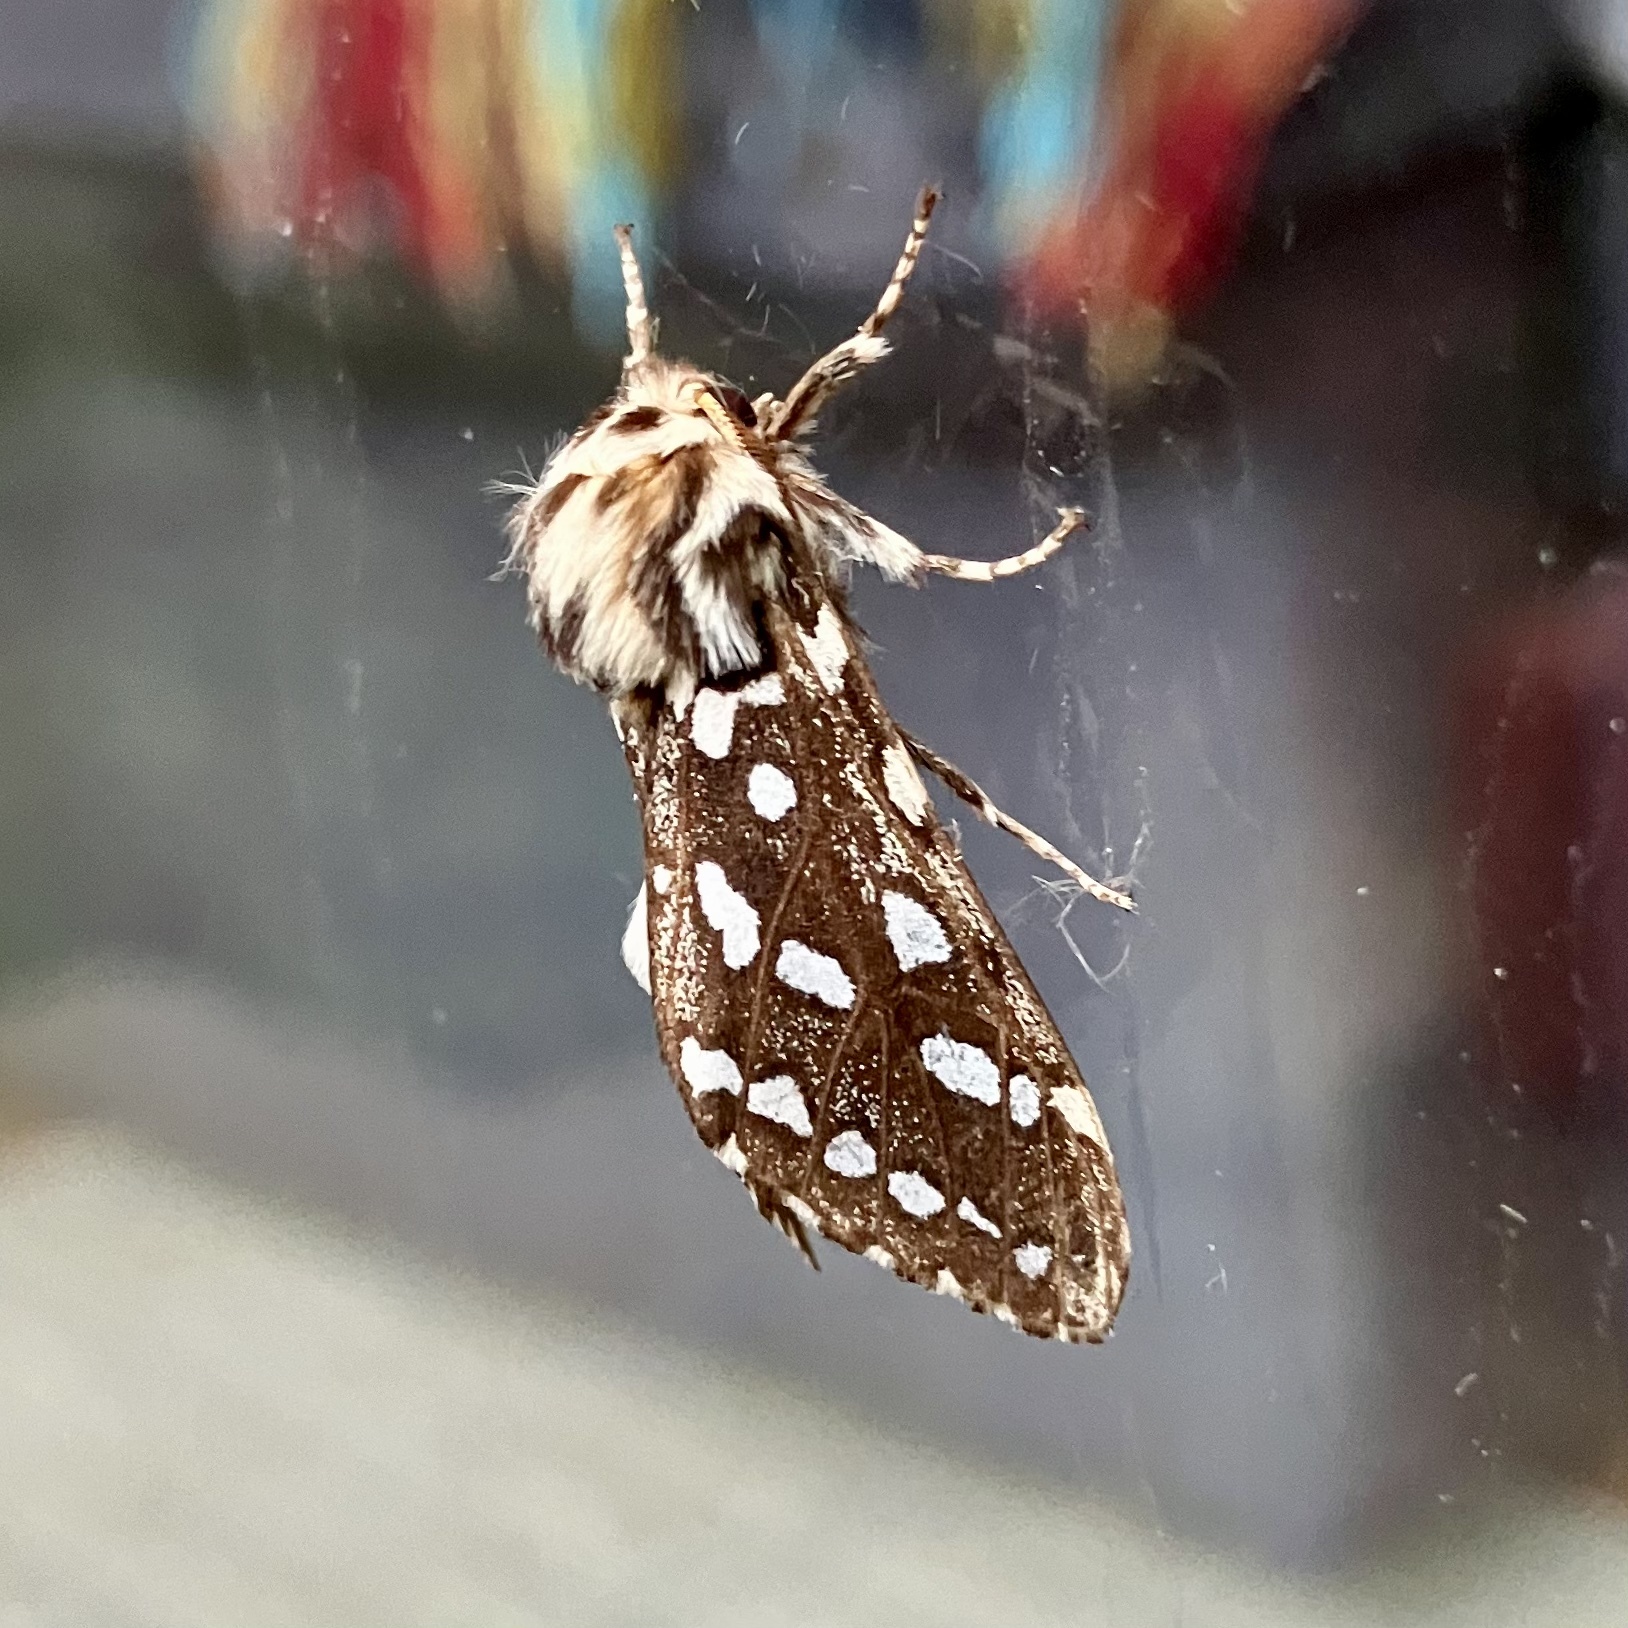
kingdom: Animalia
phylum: Arthropoda
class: Insecta
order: Lepidoptera
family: Erebidae
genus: Lophocampa
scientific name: Lophocampa argentata
